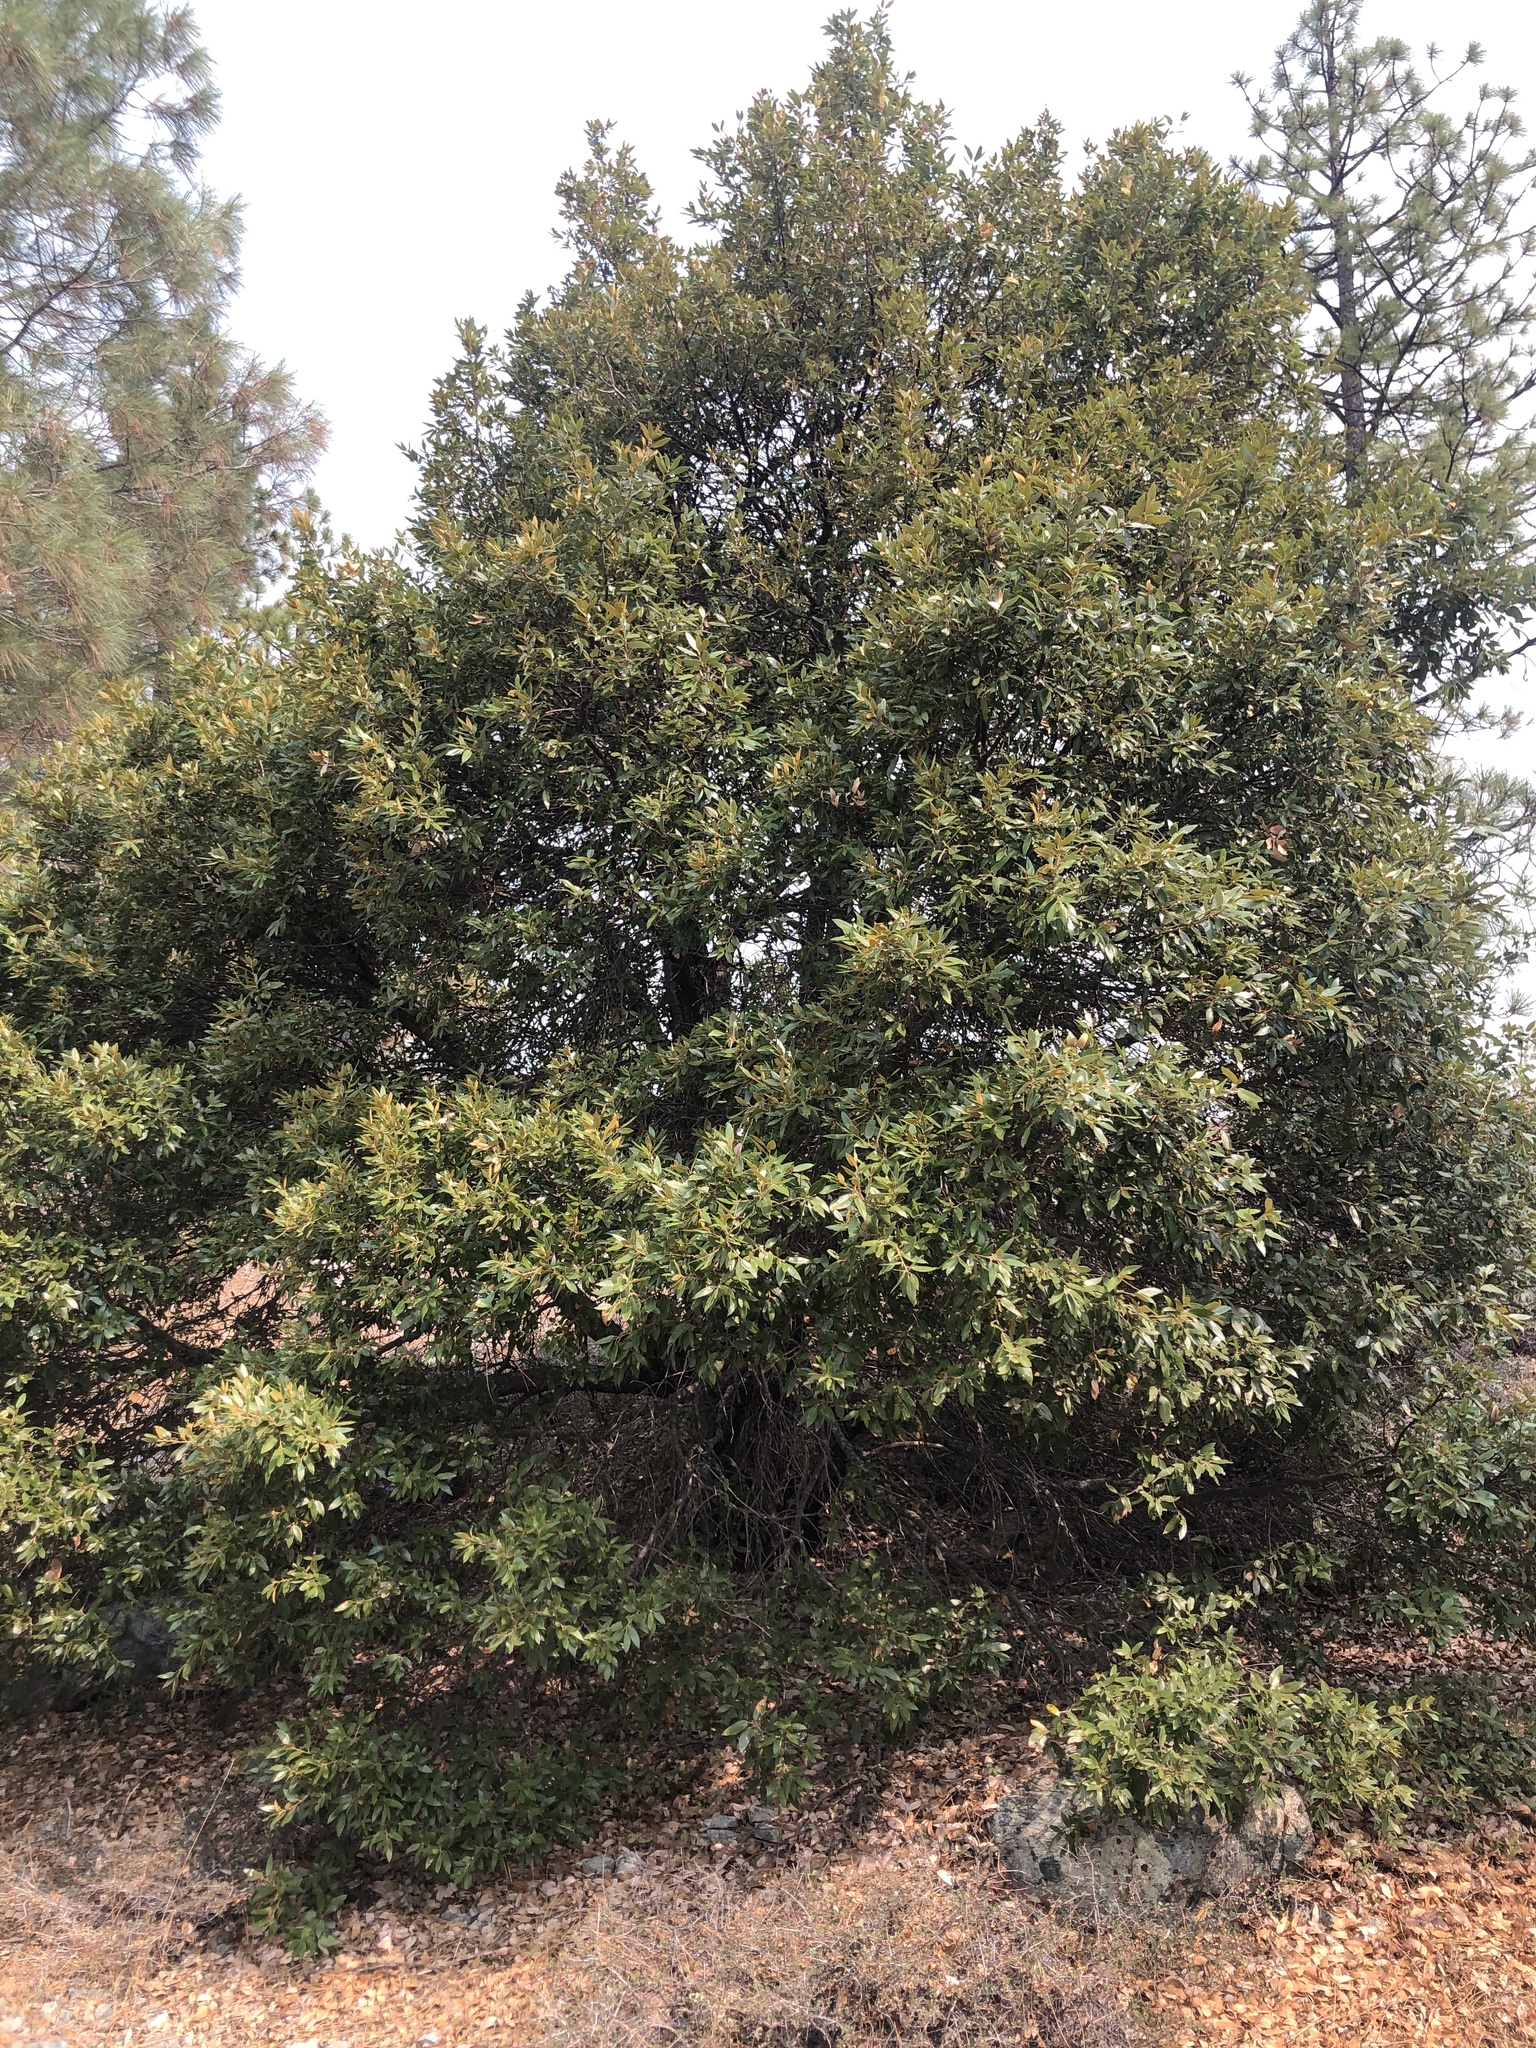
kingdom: Plantae
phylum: Tracheophyta
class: Magnoliopsida
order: Fagales
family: Fagaceae
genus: Quercus
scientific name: Quercus chrysolepis
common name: Canyon live oak
